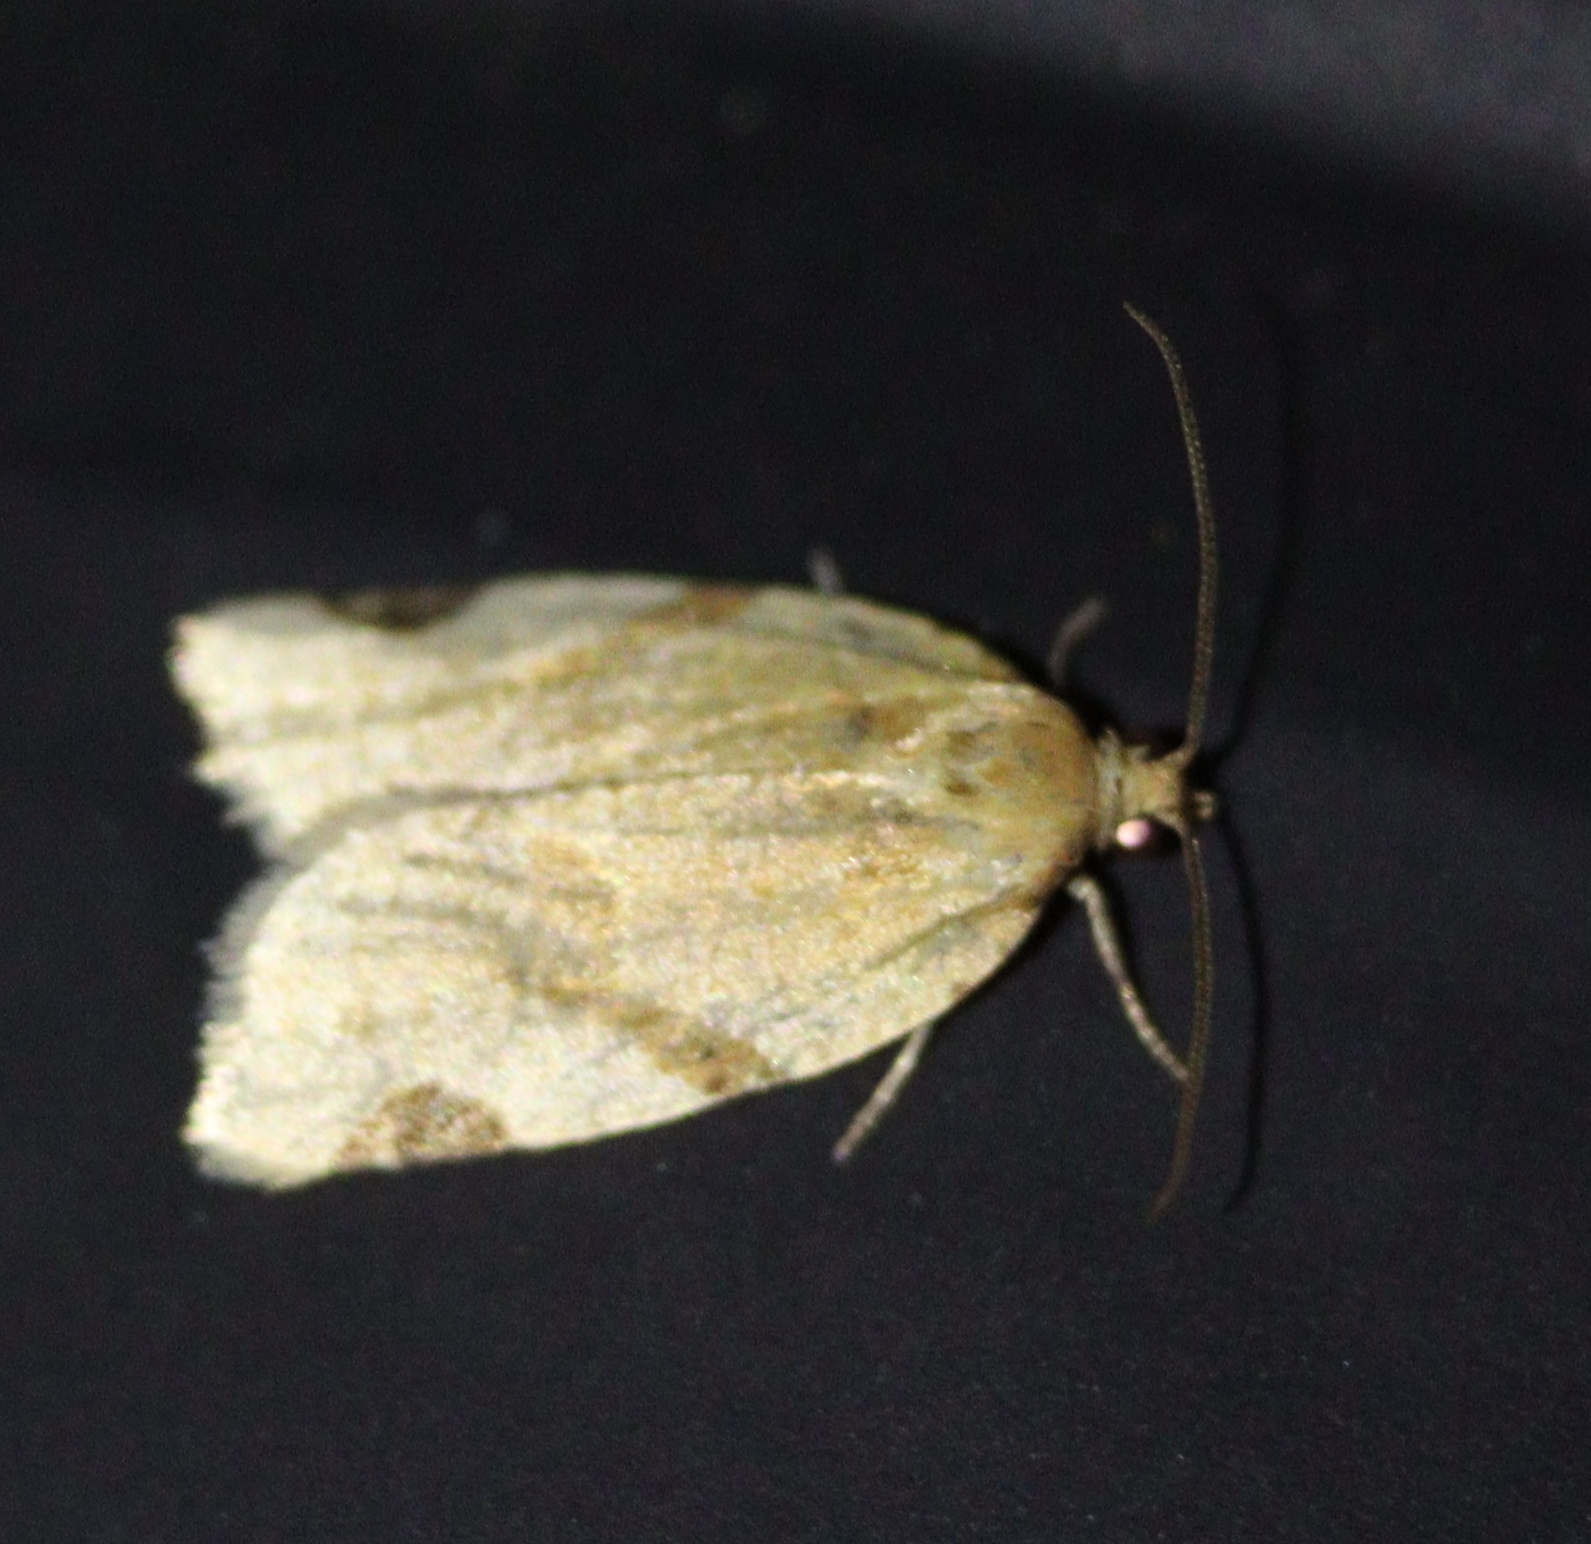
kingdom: Animalia
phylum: Arthropoda
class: Insecta
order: Lepidoptera
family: Tortricidae
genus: Paramesia
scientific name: Paramesia gnomana
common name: Small straw twist
